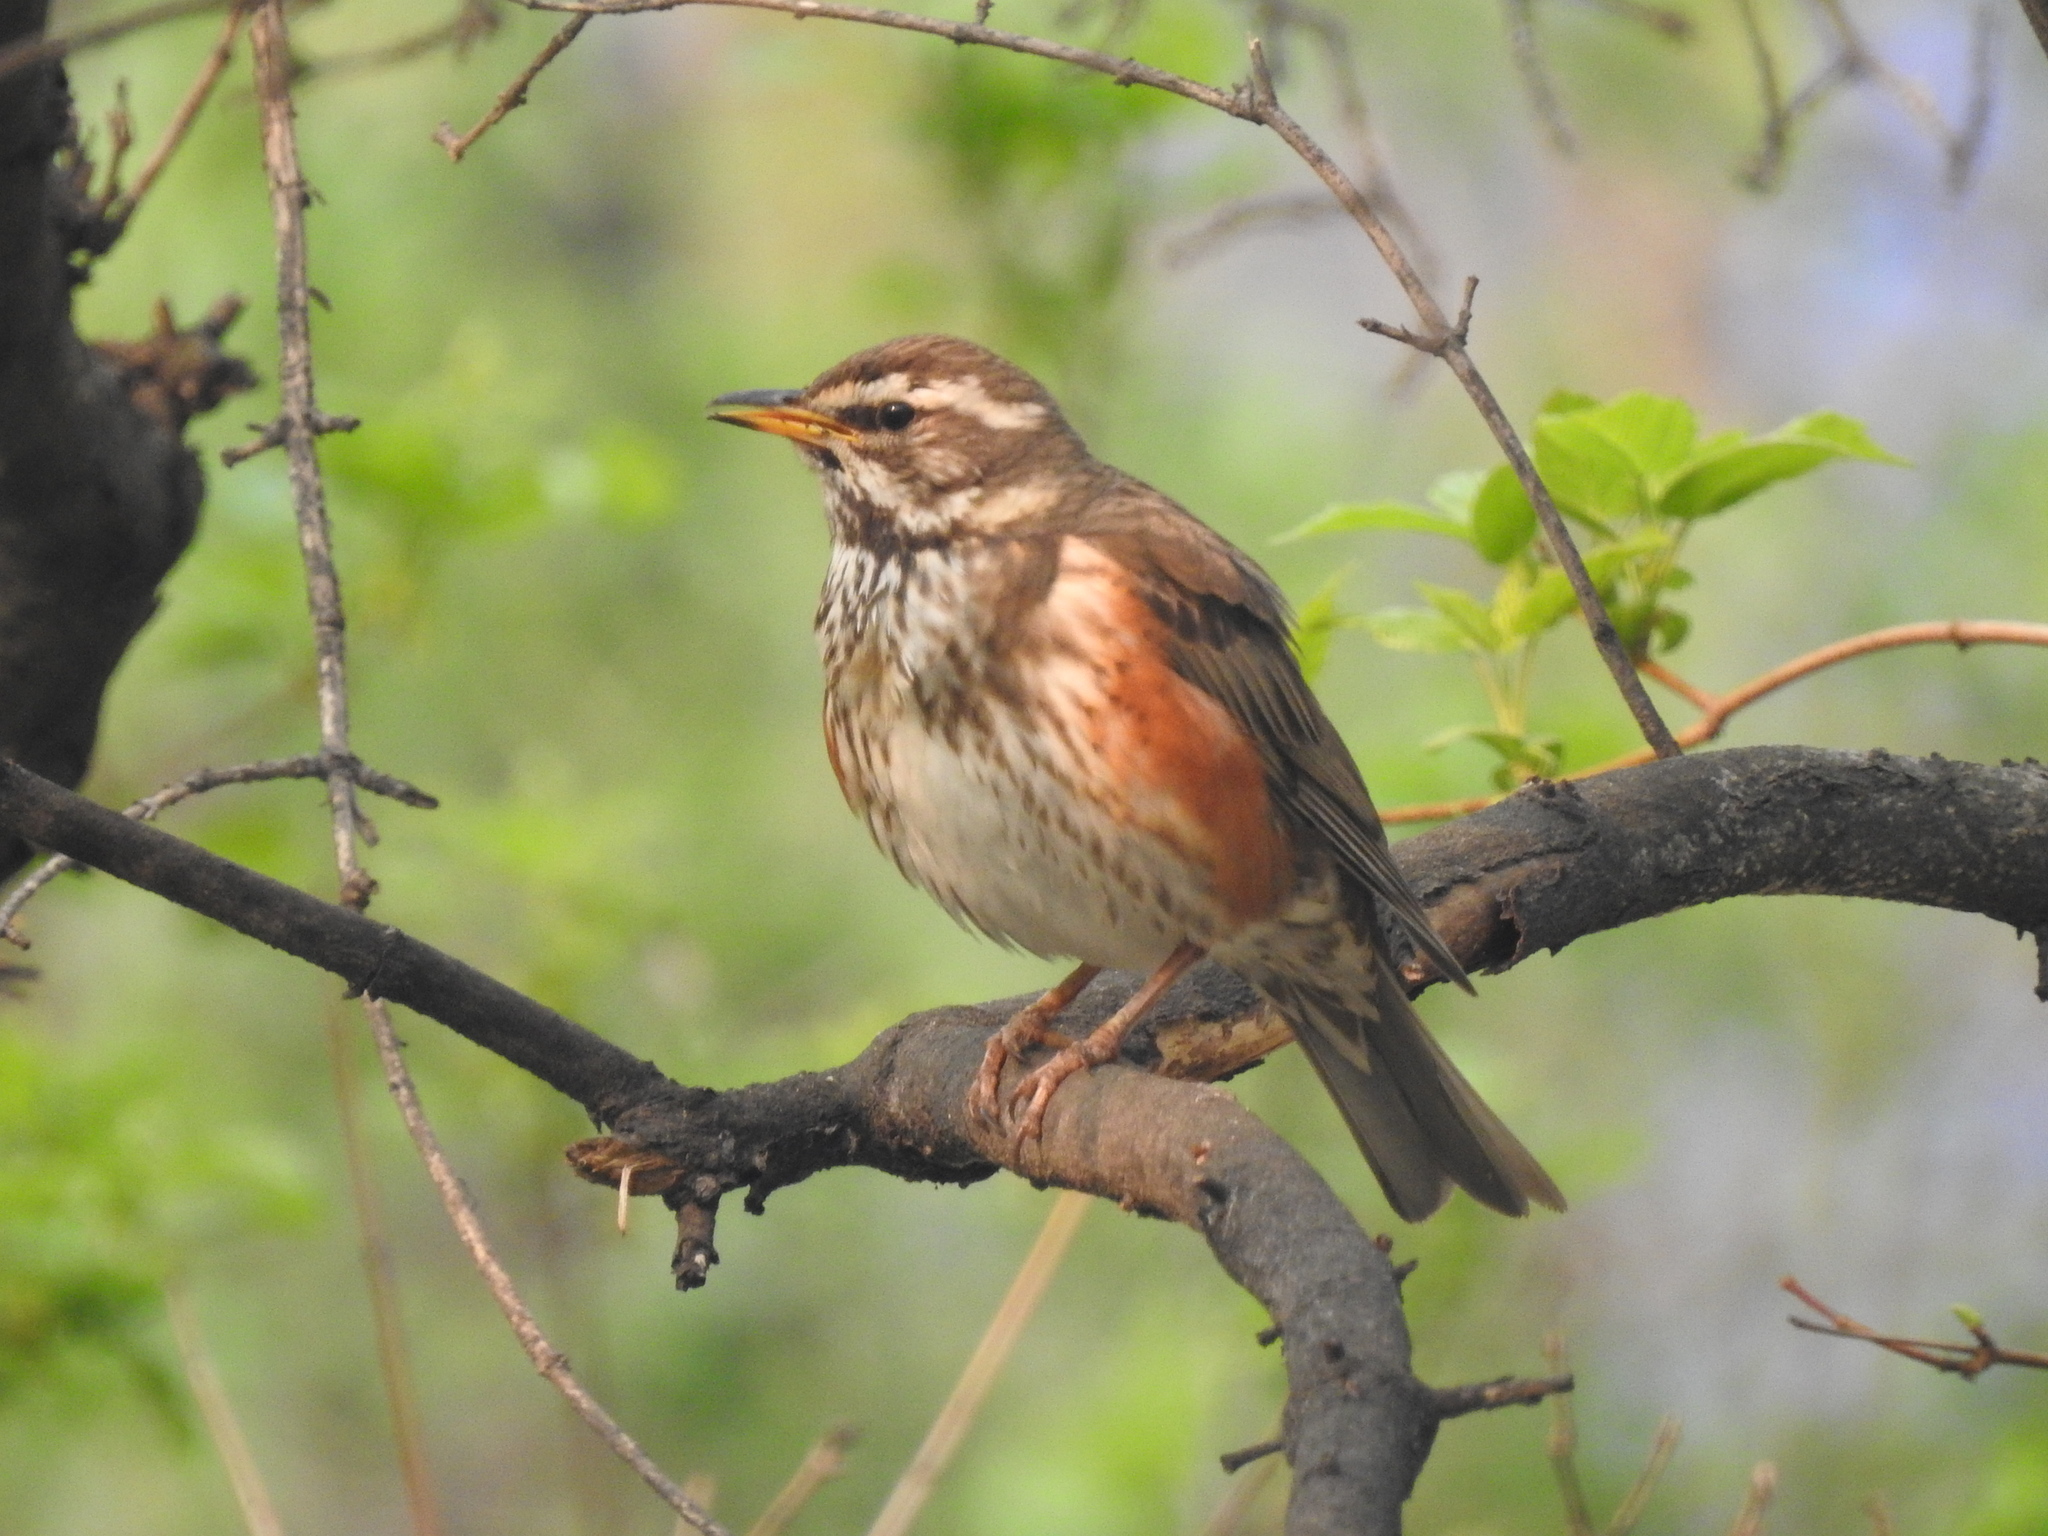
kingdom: Animalia
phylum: Chordata
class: Aves
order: Passeriformes
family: Turdidae
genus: Turdus
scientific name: Turdus iliacus
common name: Redwing
